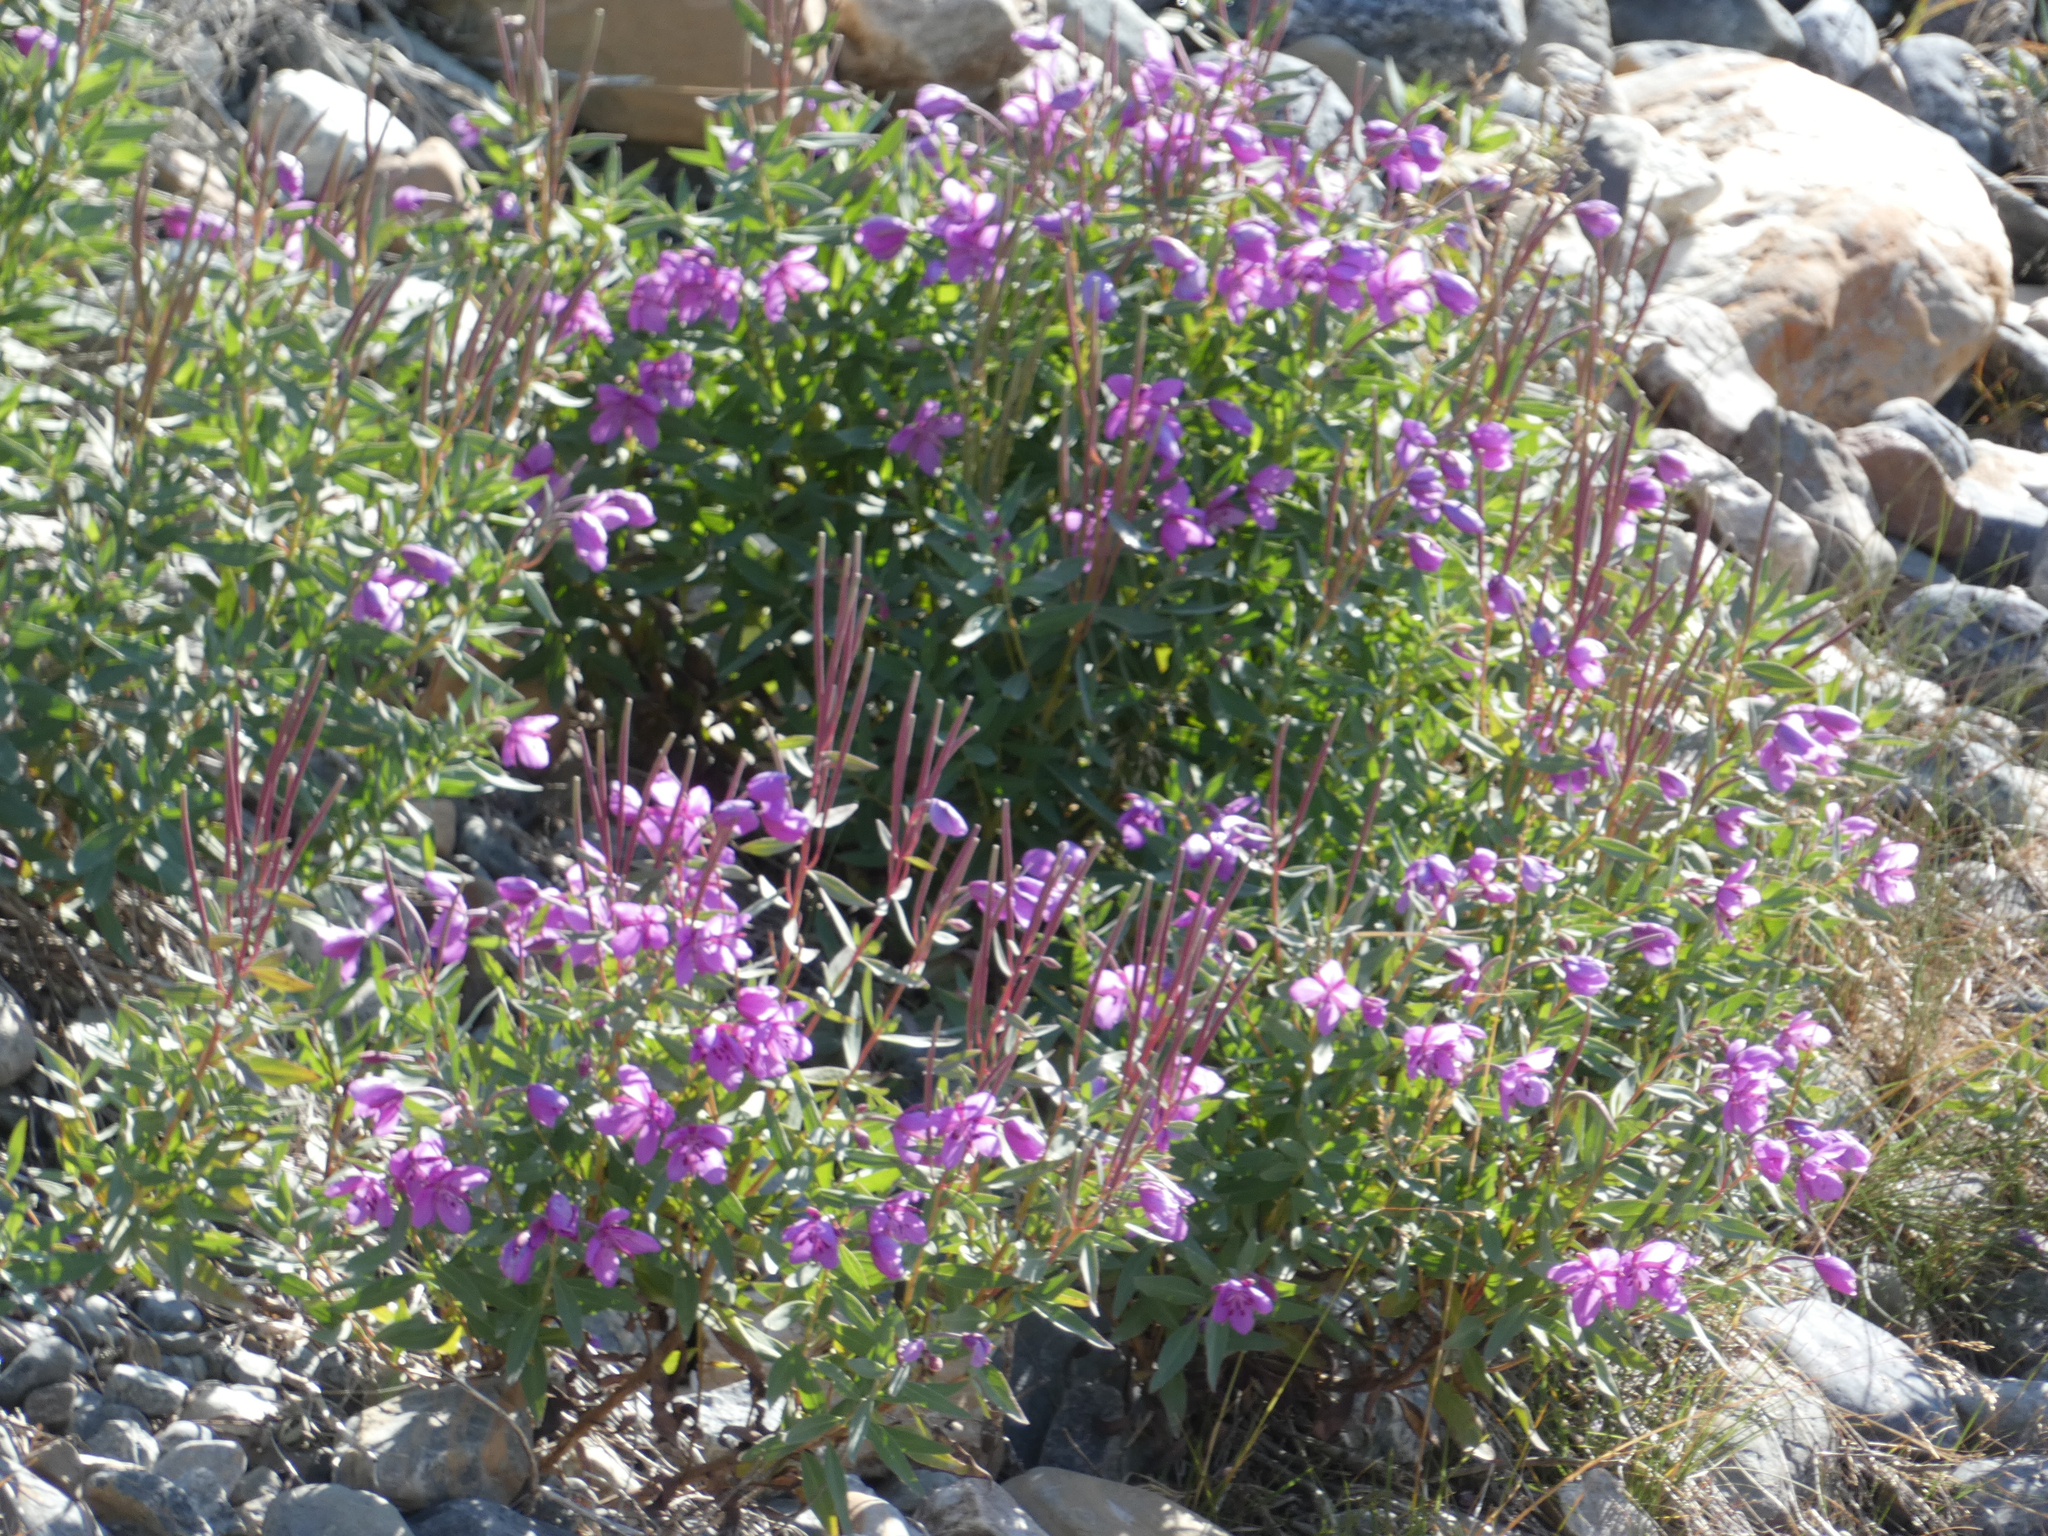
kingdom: Plantae
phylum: Tracheophyta
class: Magnoliopsida
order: Myrtales
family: Onagraceae
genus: Chamaenerion
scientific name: Chamaenerion latifolium
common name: Dwarf fireweed
